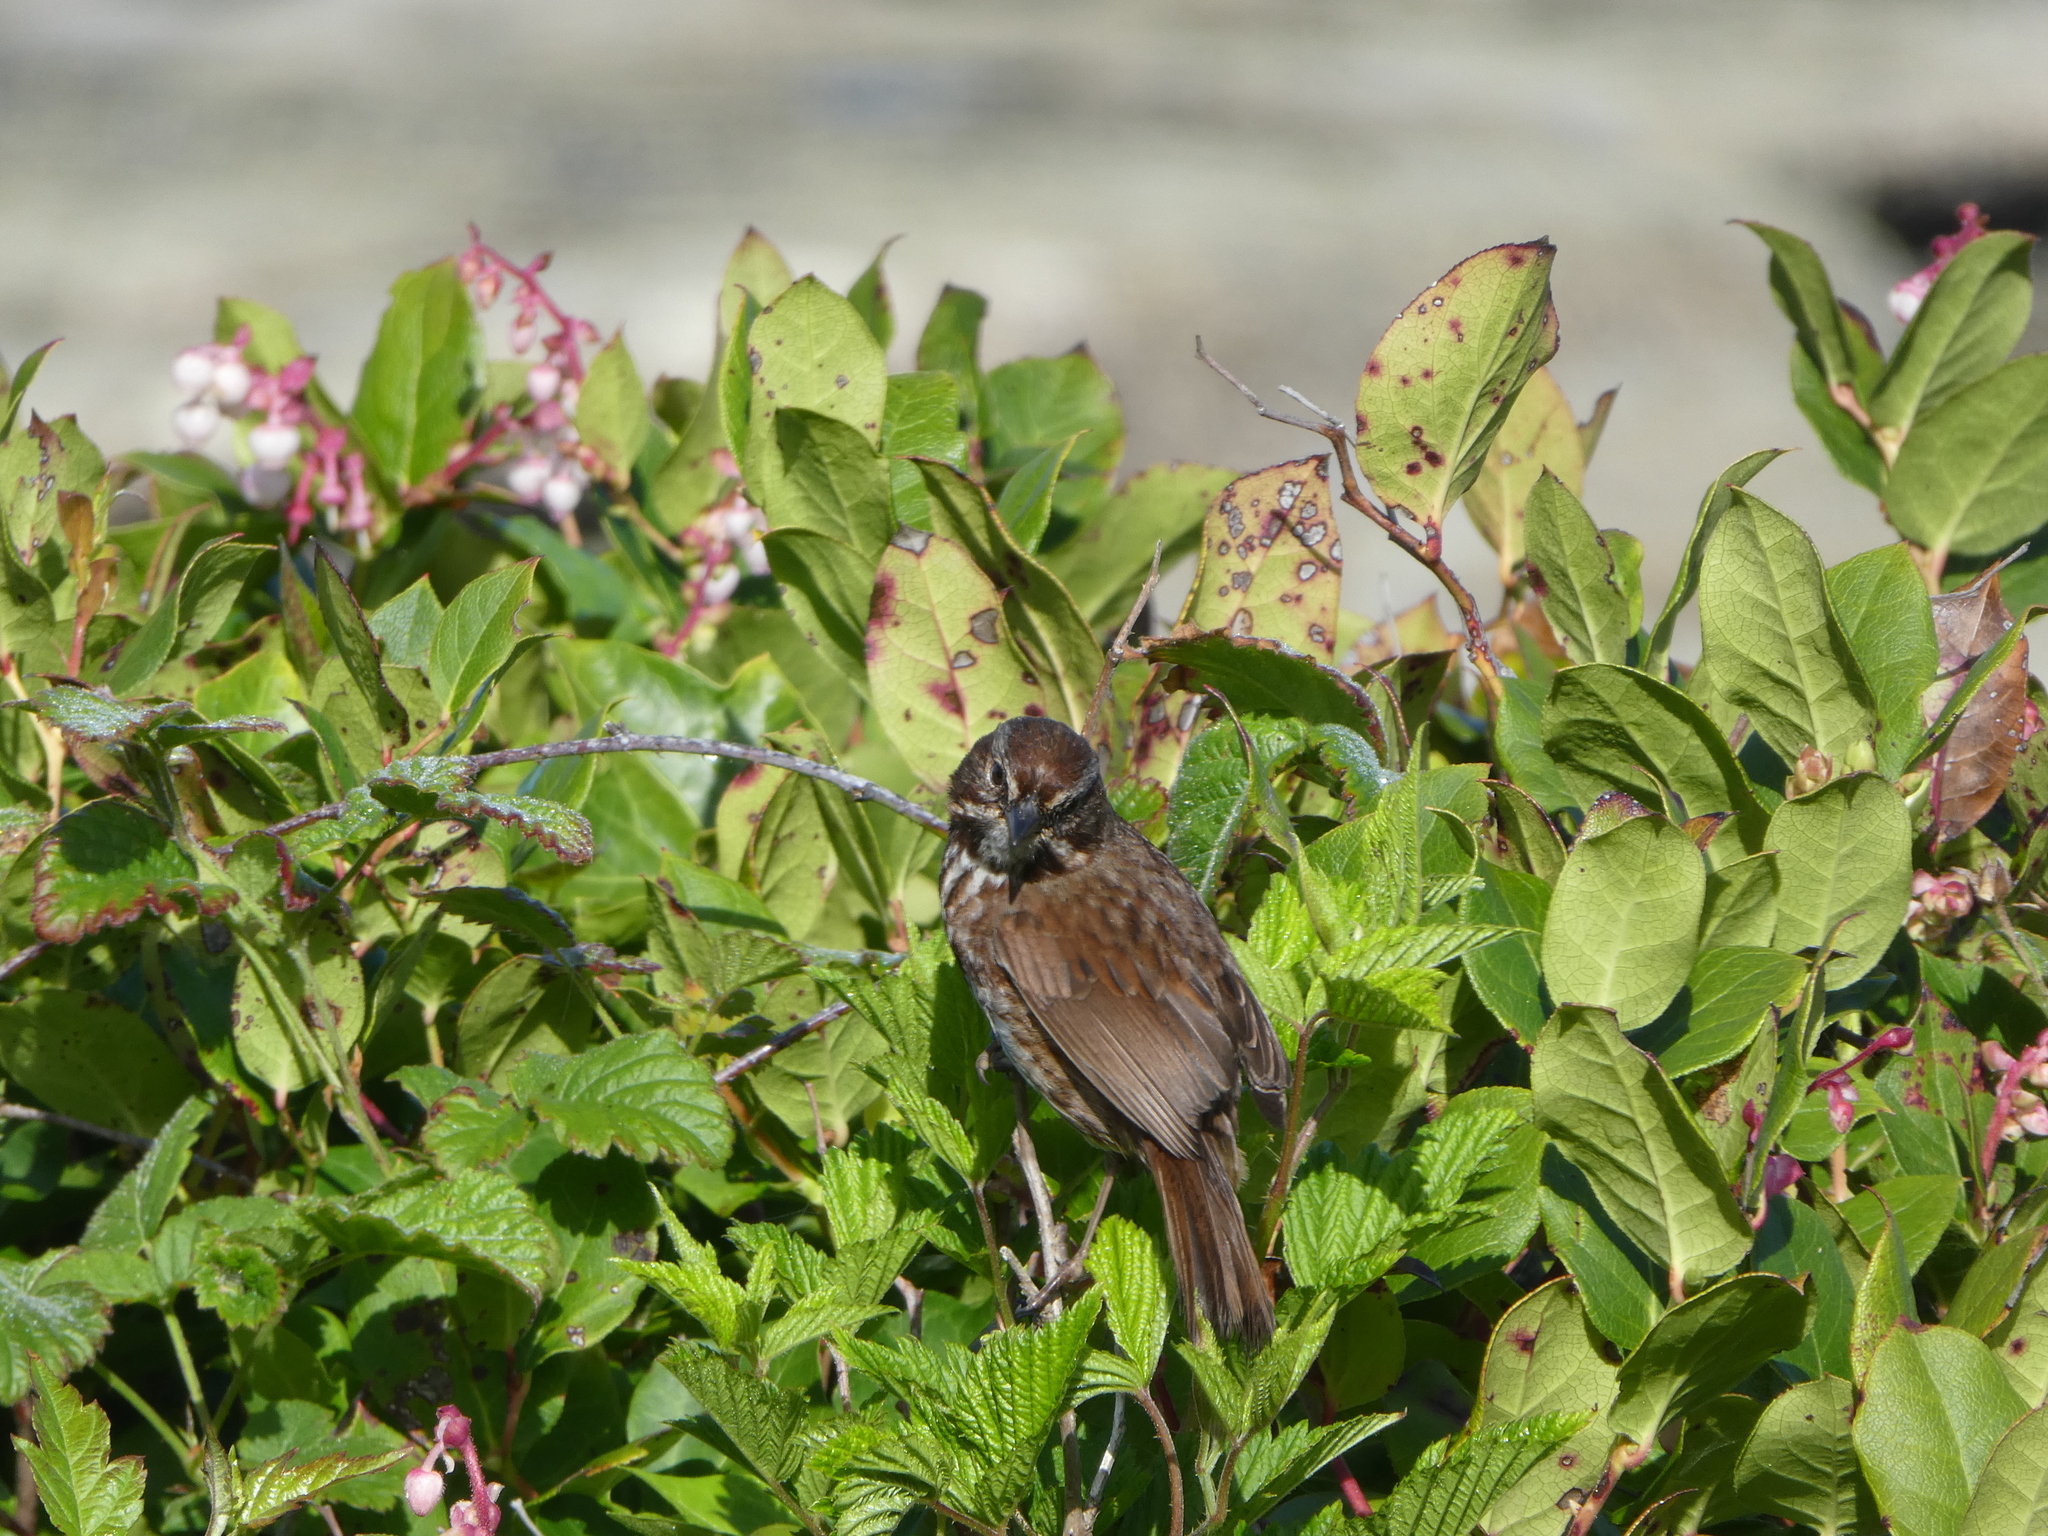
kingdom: Animalia
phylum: Chordata
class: Aves
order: Passeriformes
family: Passerellidae
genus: Melospiza
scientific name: Melospiza melodia
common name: Song sparrow
